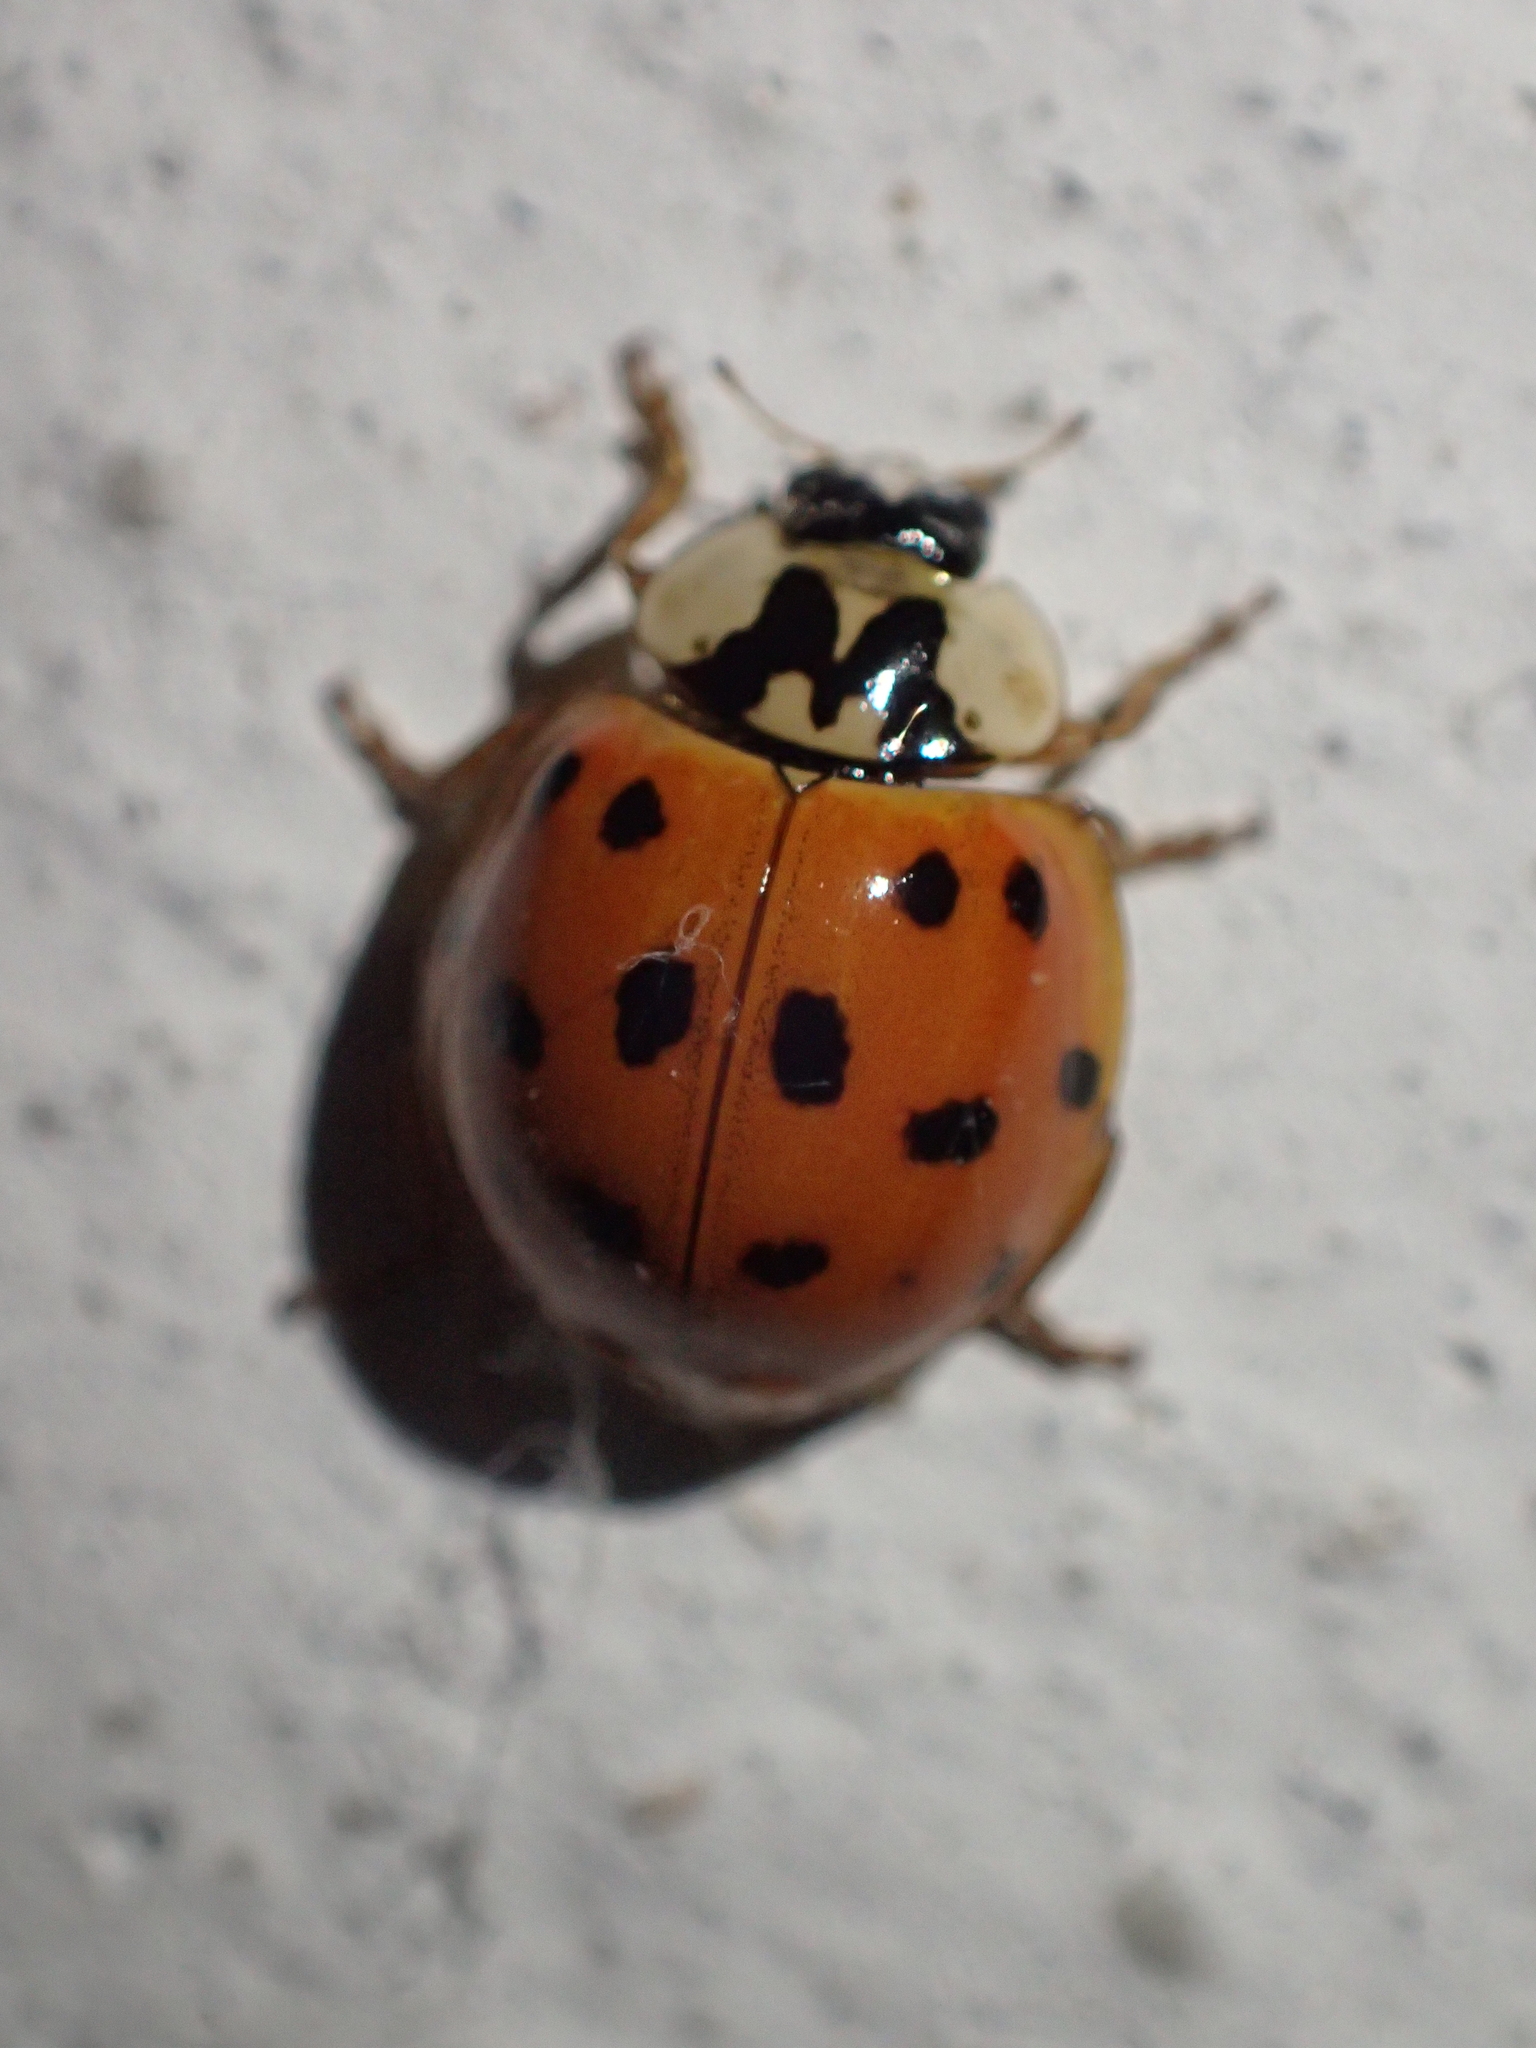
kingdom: Animalia
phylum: Arthropoda
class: Insecta
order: Coleoptera
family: Coccinellidae
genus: Harmonia
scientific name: Harmonia axyridis
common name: Harlequin ladybird
